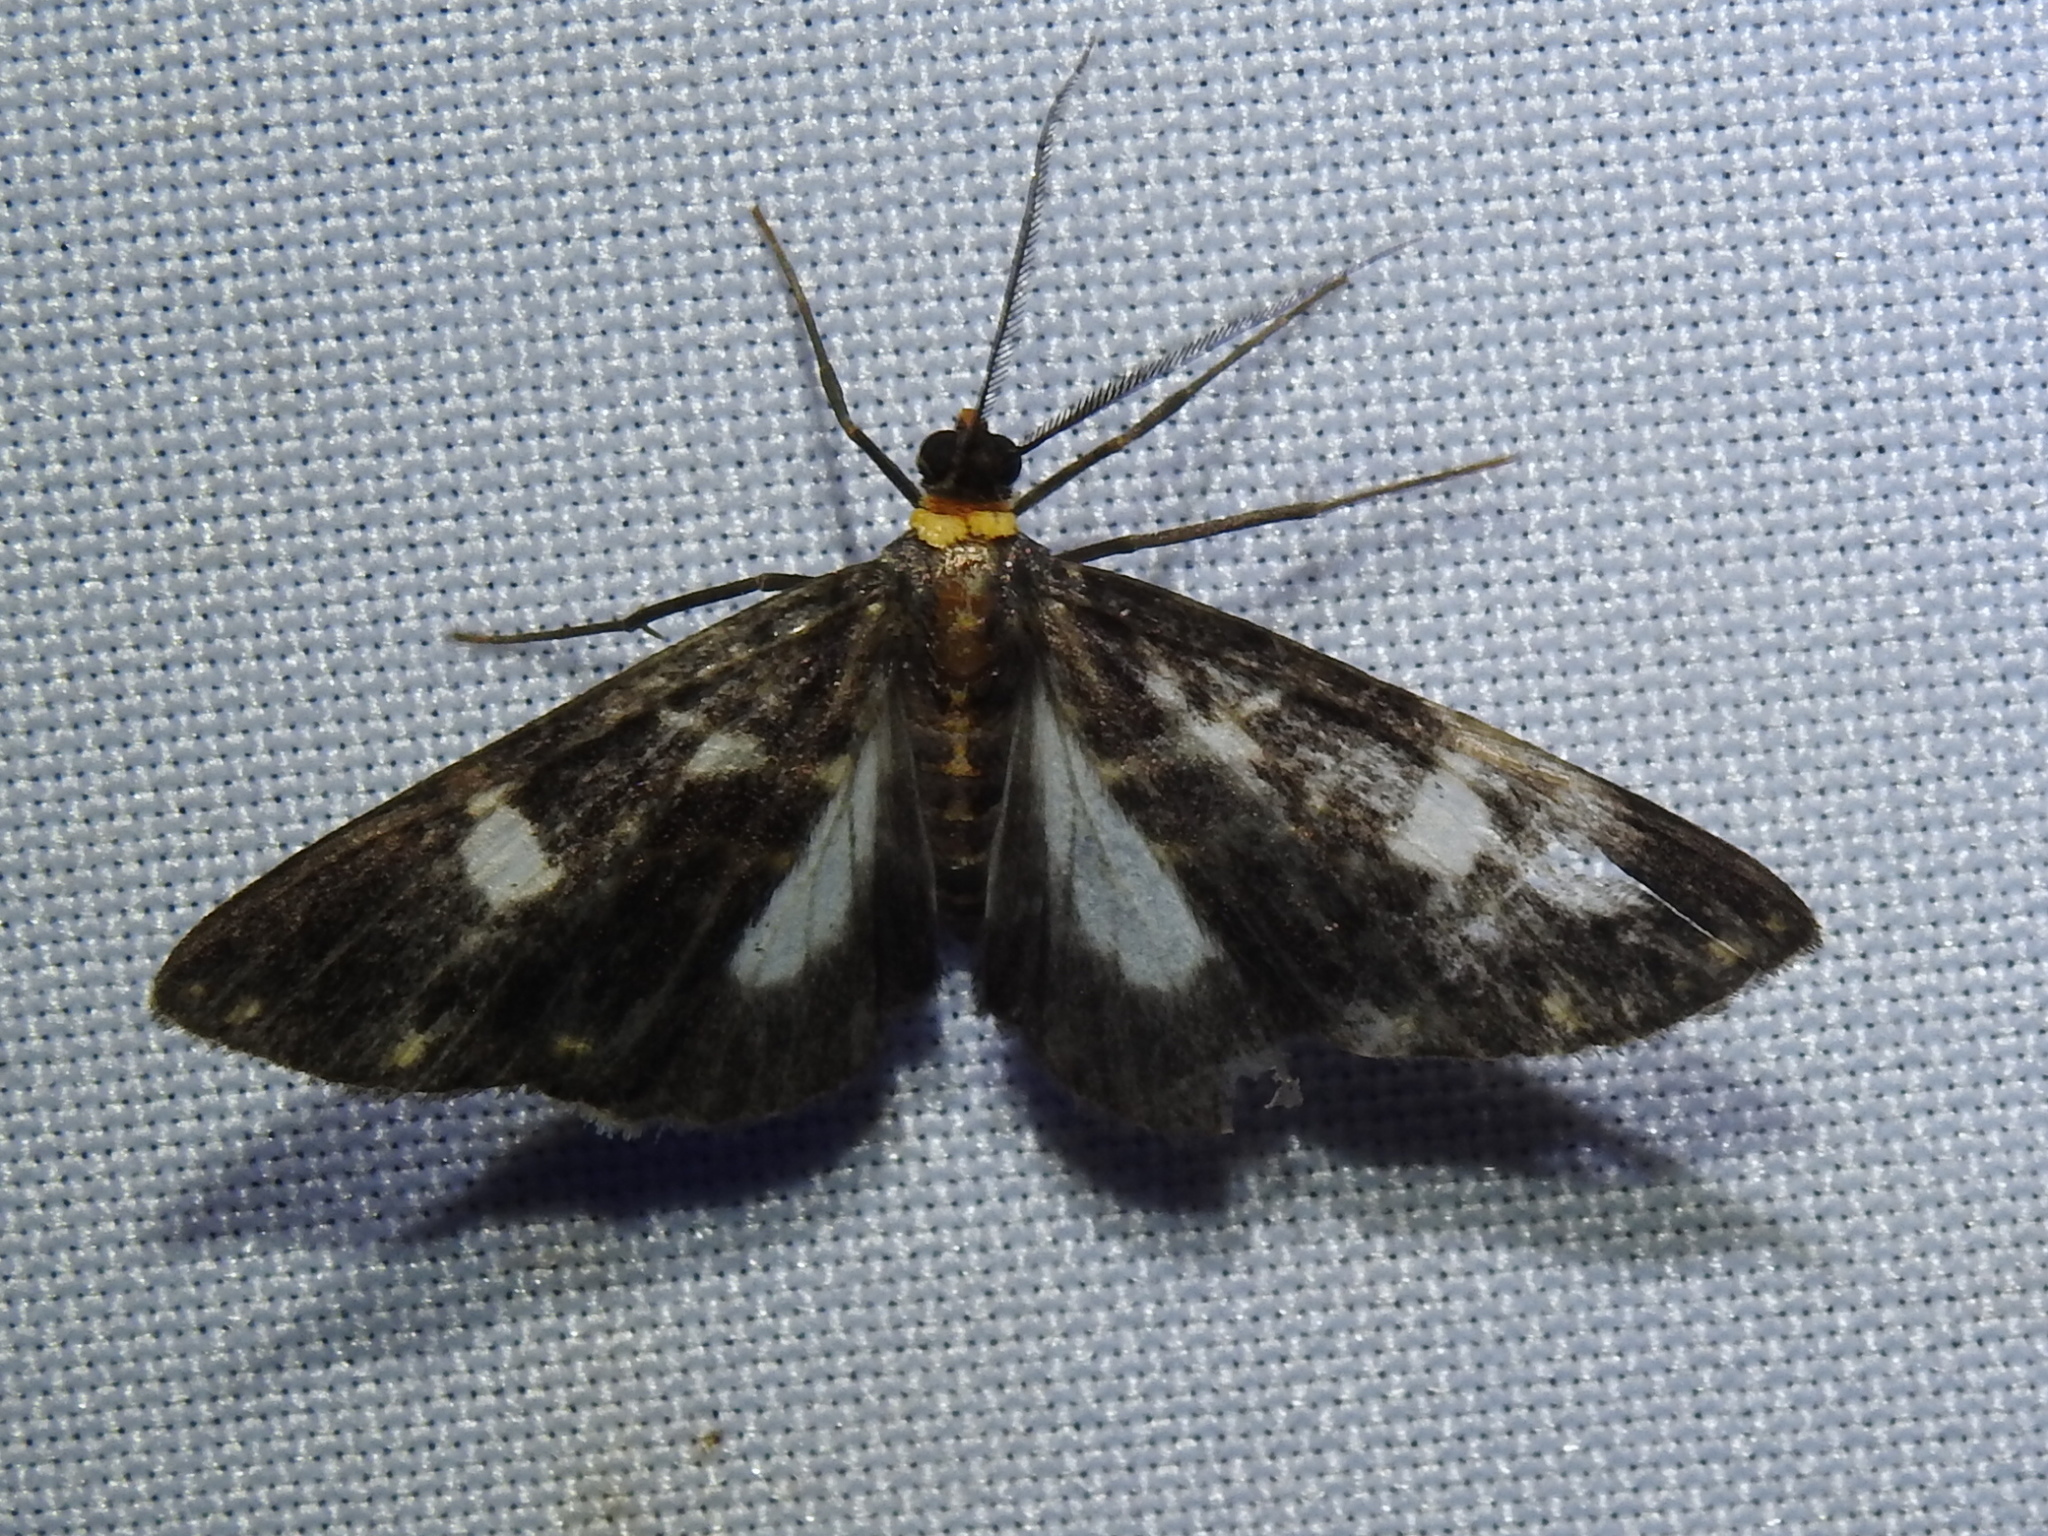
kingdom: Animalia
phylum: Arthropoda
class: Insecta
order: Lepidoptera
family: Geometridae
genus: Melanoscia
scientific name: Melanoscia oreades
